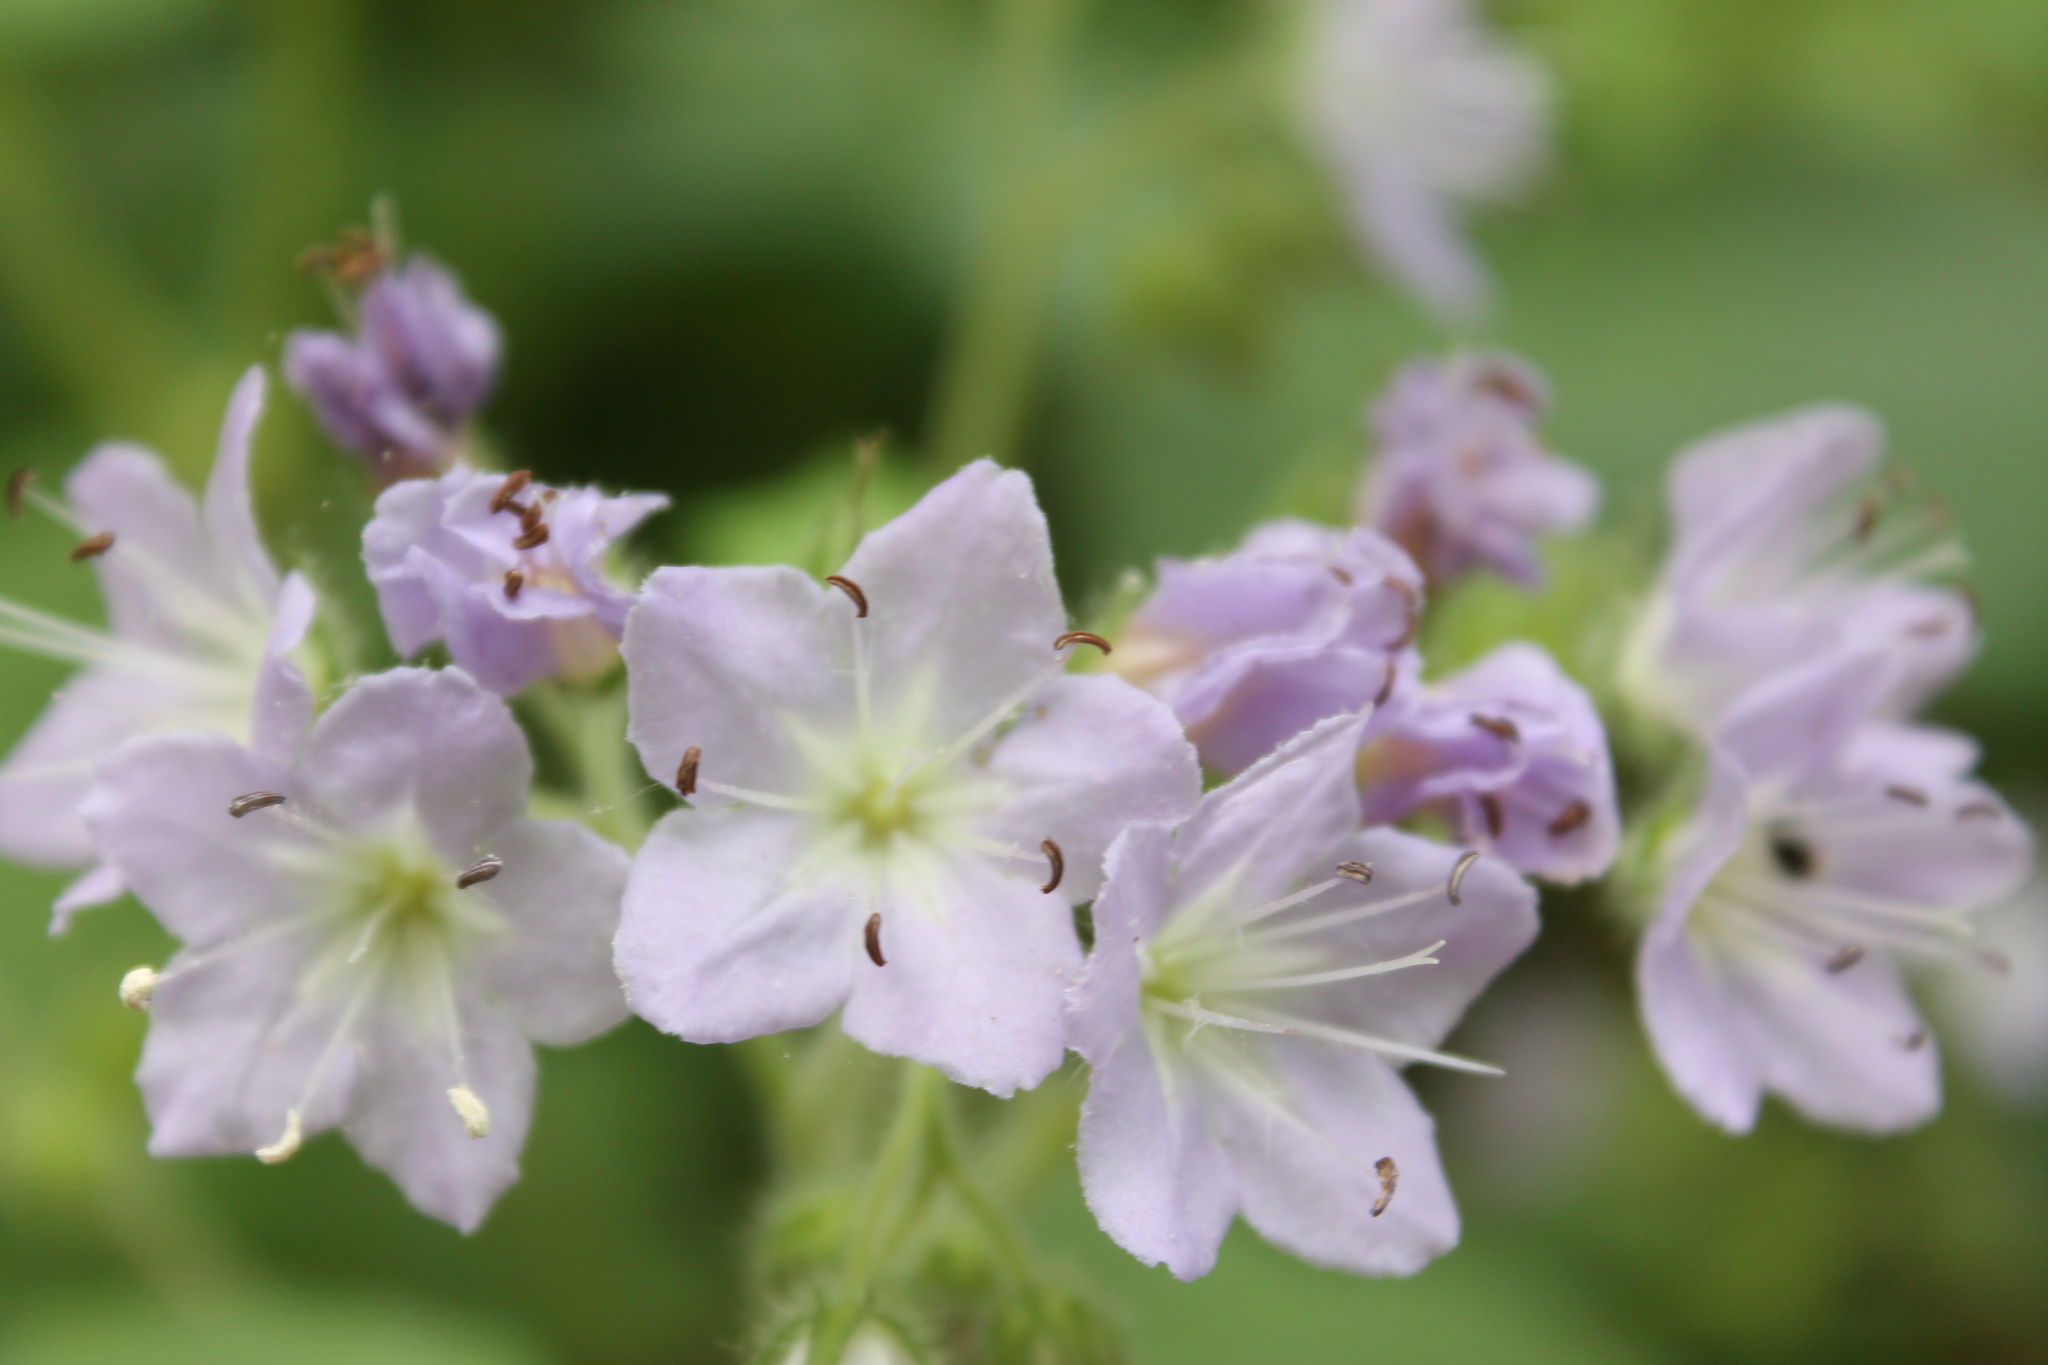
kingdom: Plantae
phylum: Tracheophyta
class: Magnoliopsida
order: Boraginales
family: Hydrophyllaceae
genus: Hydrophyllum
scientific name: Hydrophyllum appendiculatum
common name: Appendaged waterleaf
